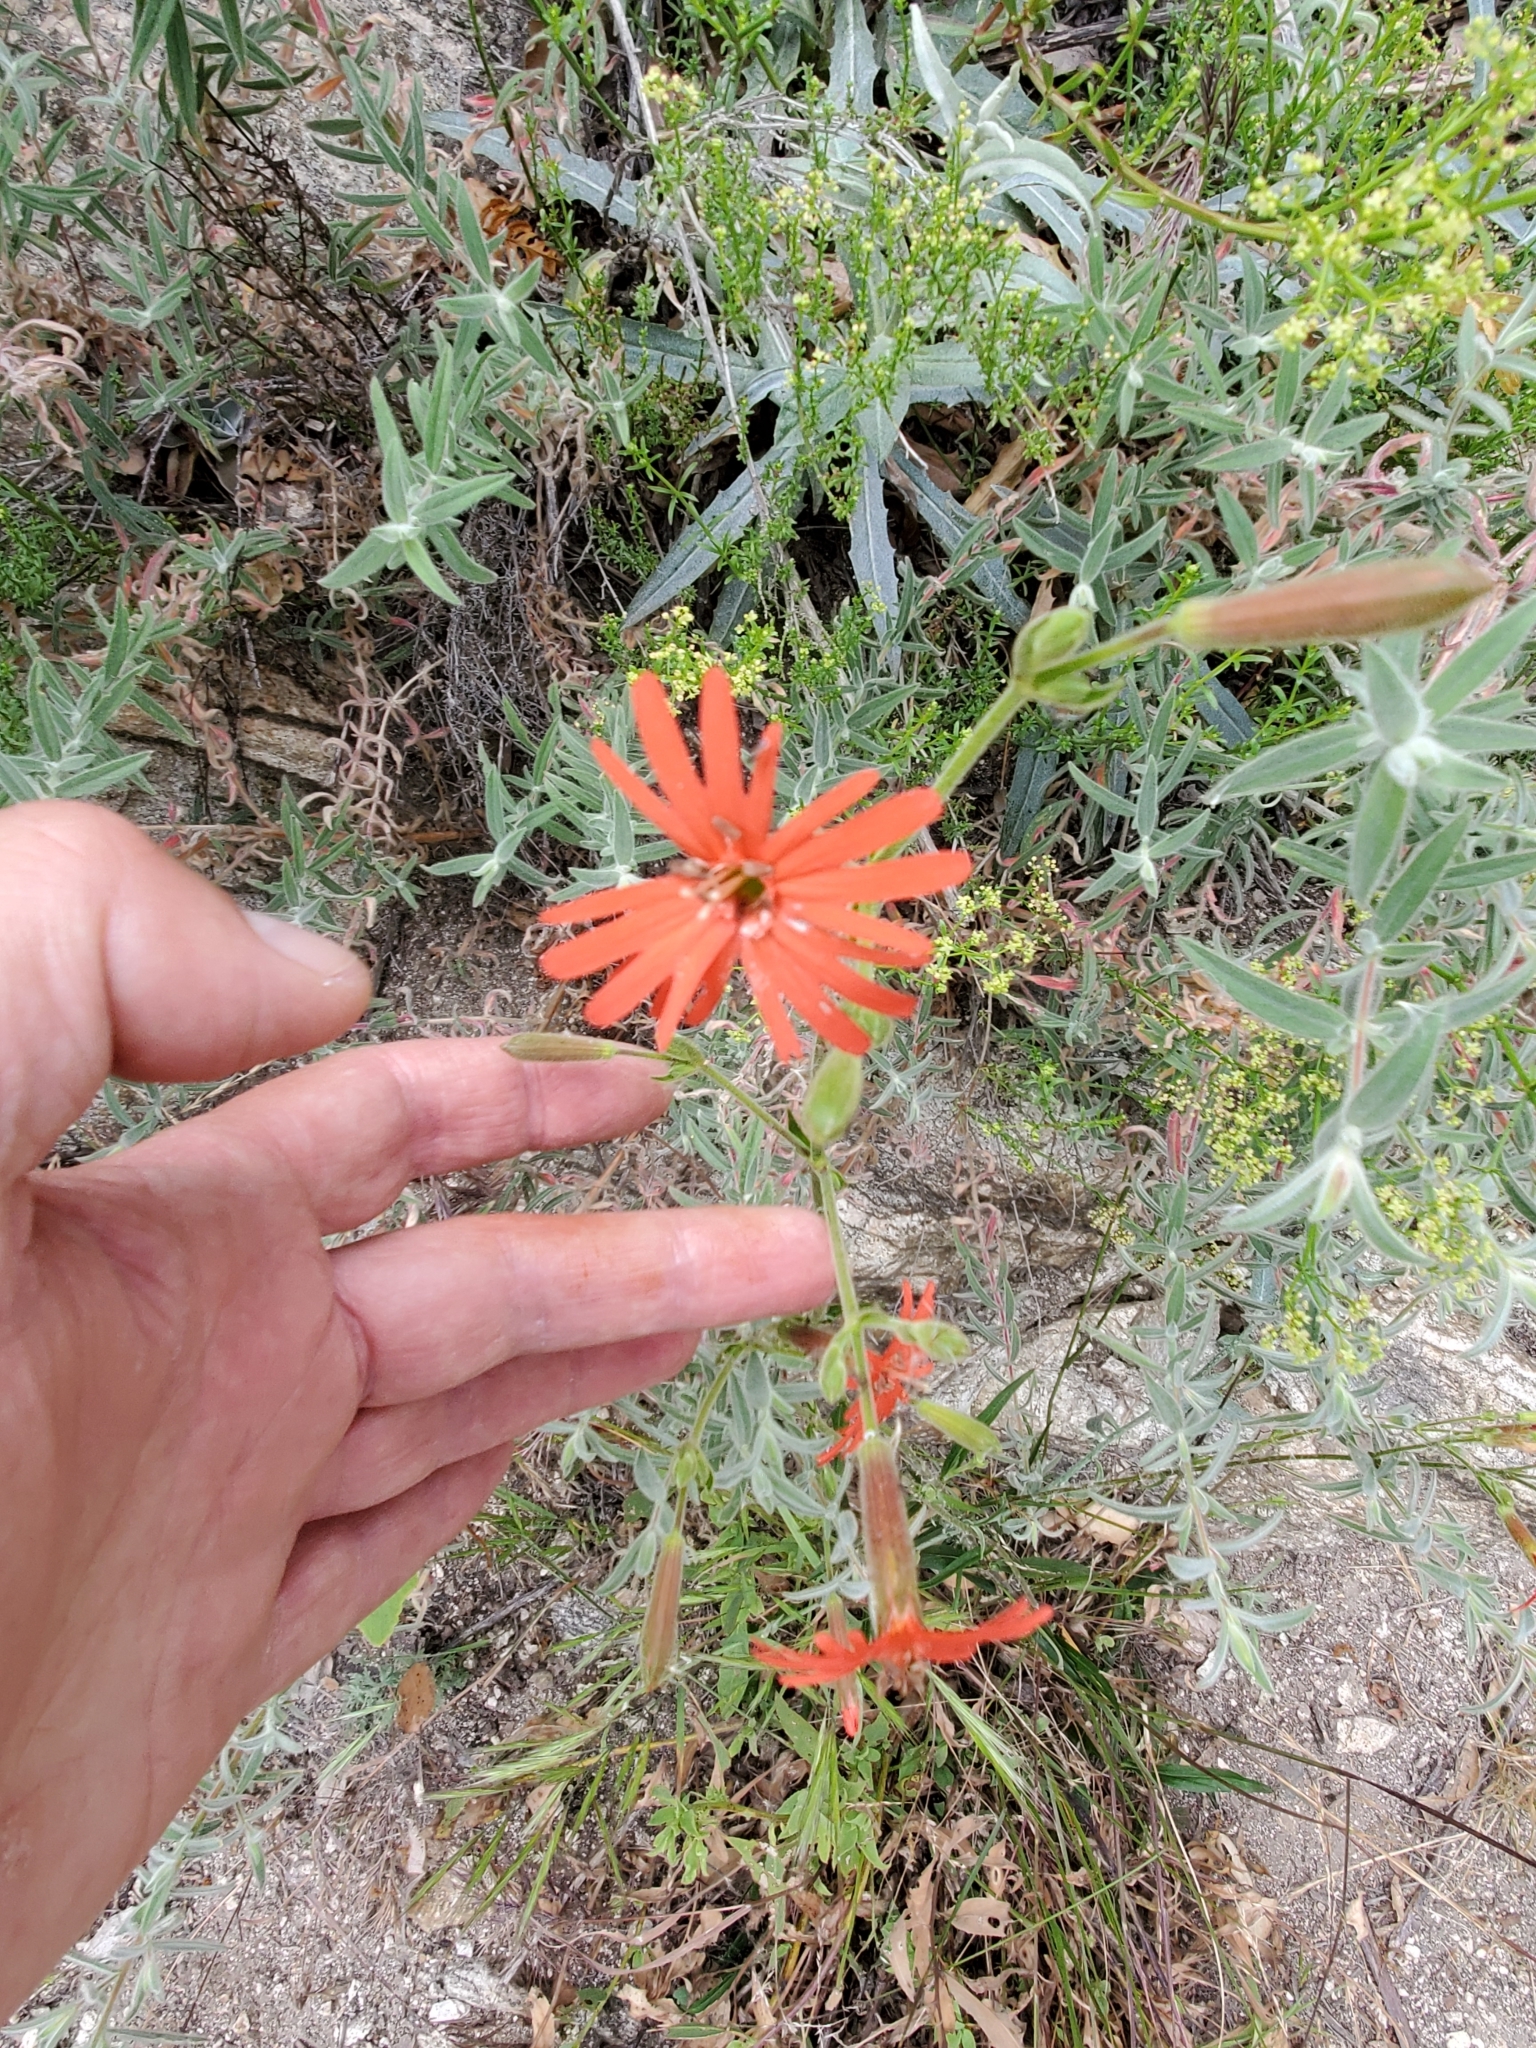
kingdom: Plantae
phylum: Tracheophyta
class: Magnoliopsida
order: Caryophyllales
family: Caryophyllaceae
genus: Silene
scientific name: Silene laciniata
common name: Indian-pink
